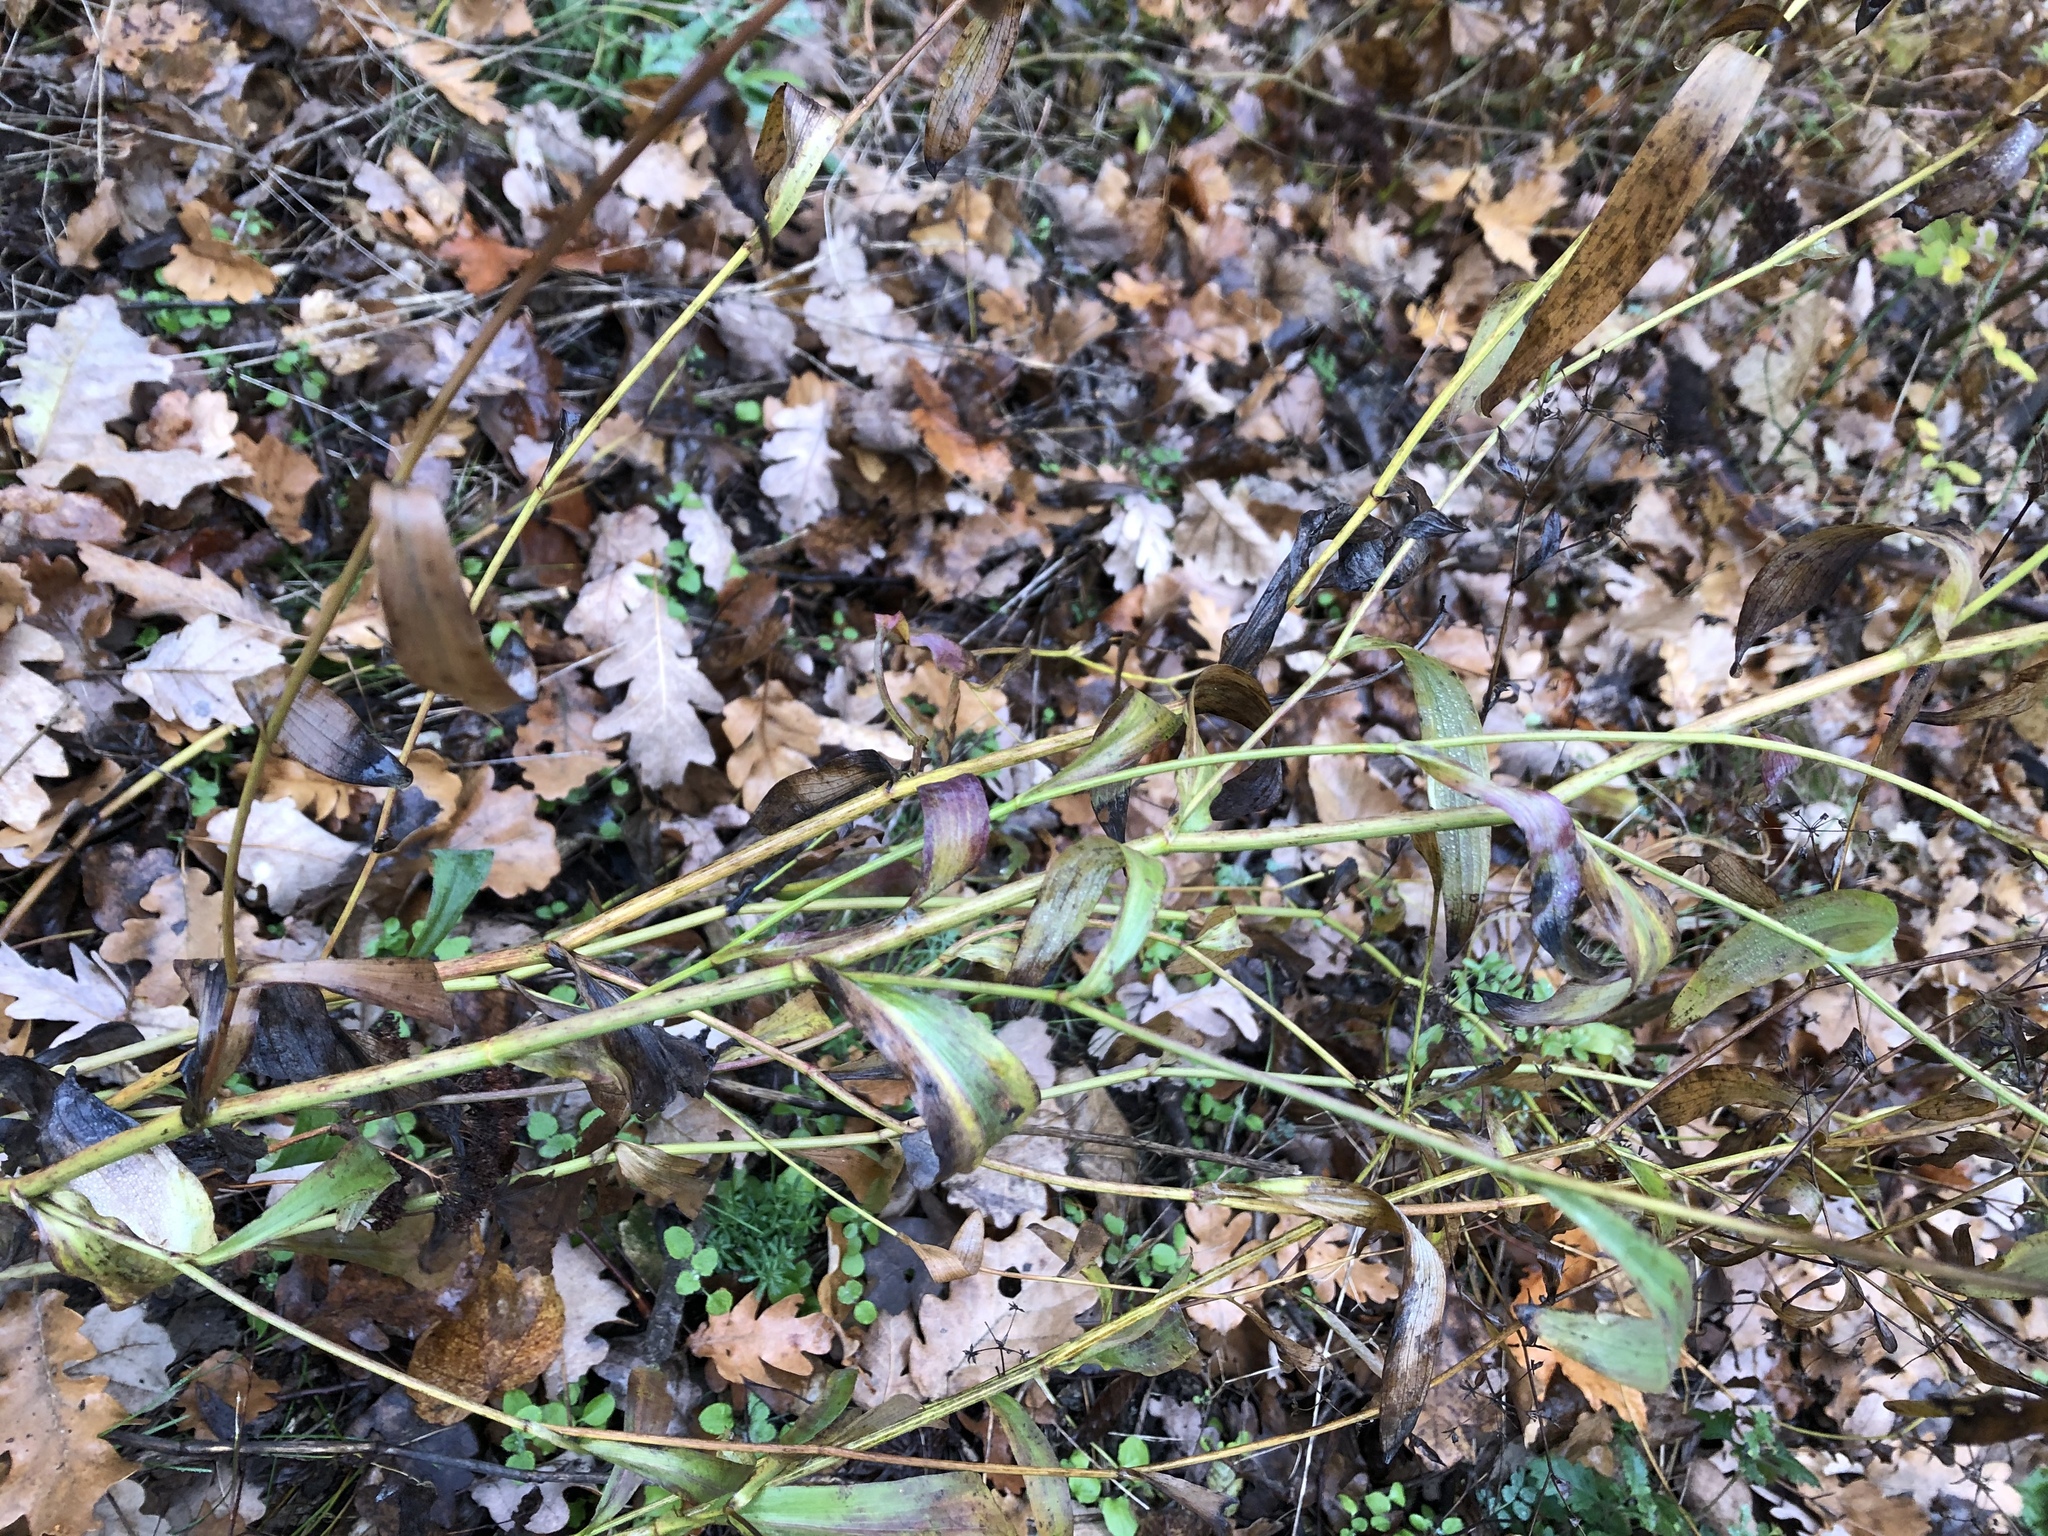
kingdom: Plantae
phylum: Tracheophyta
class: Magnoliopsida
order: Apiales
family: Apiaceae
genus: Bupleurum
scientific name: Bupleurum falcatum
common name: Sickle-leaved hare's-ear
